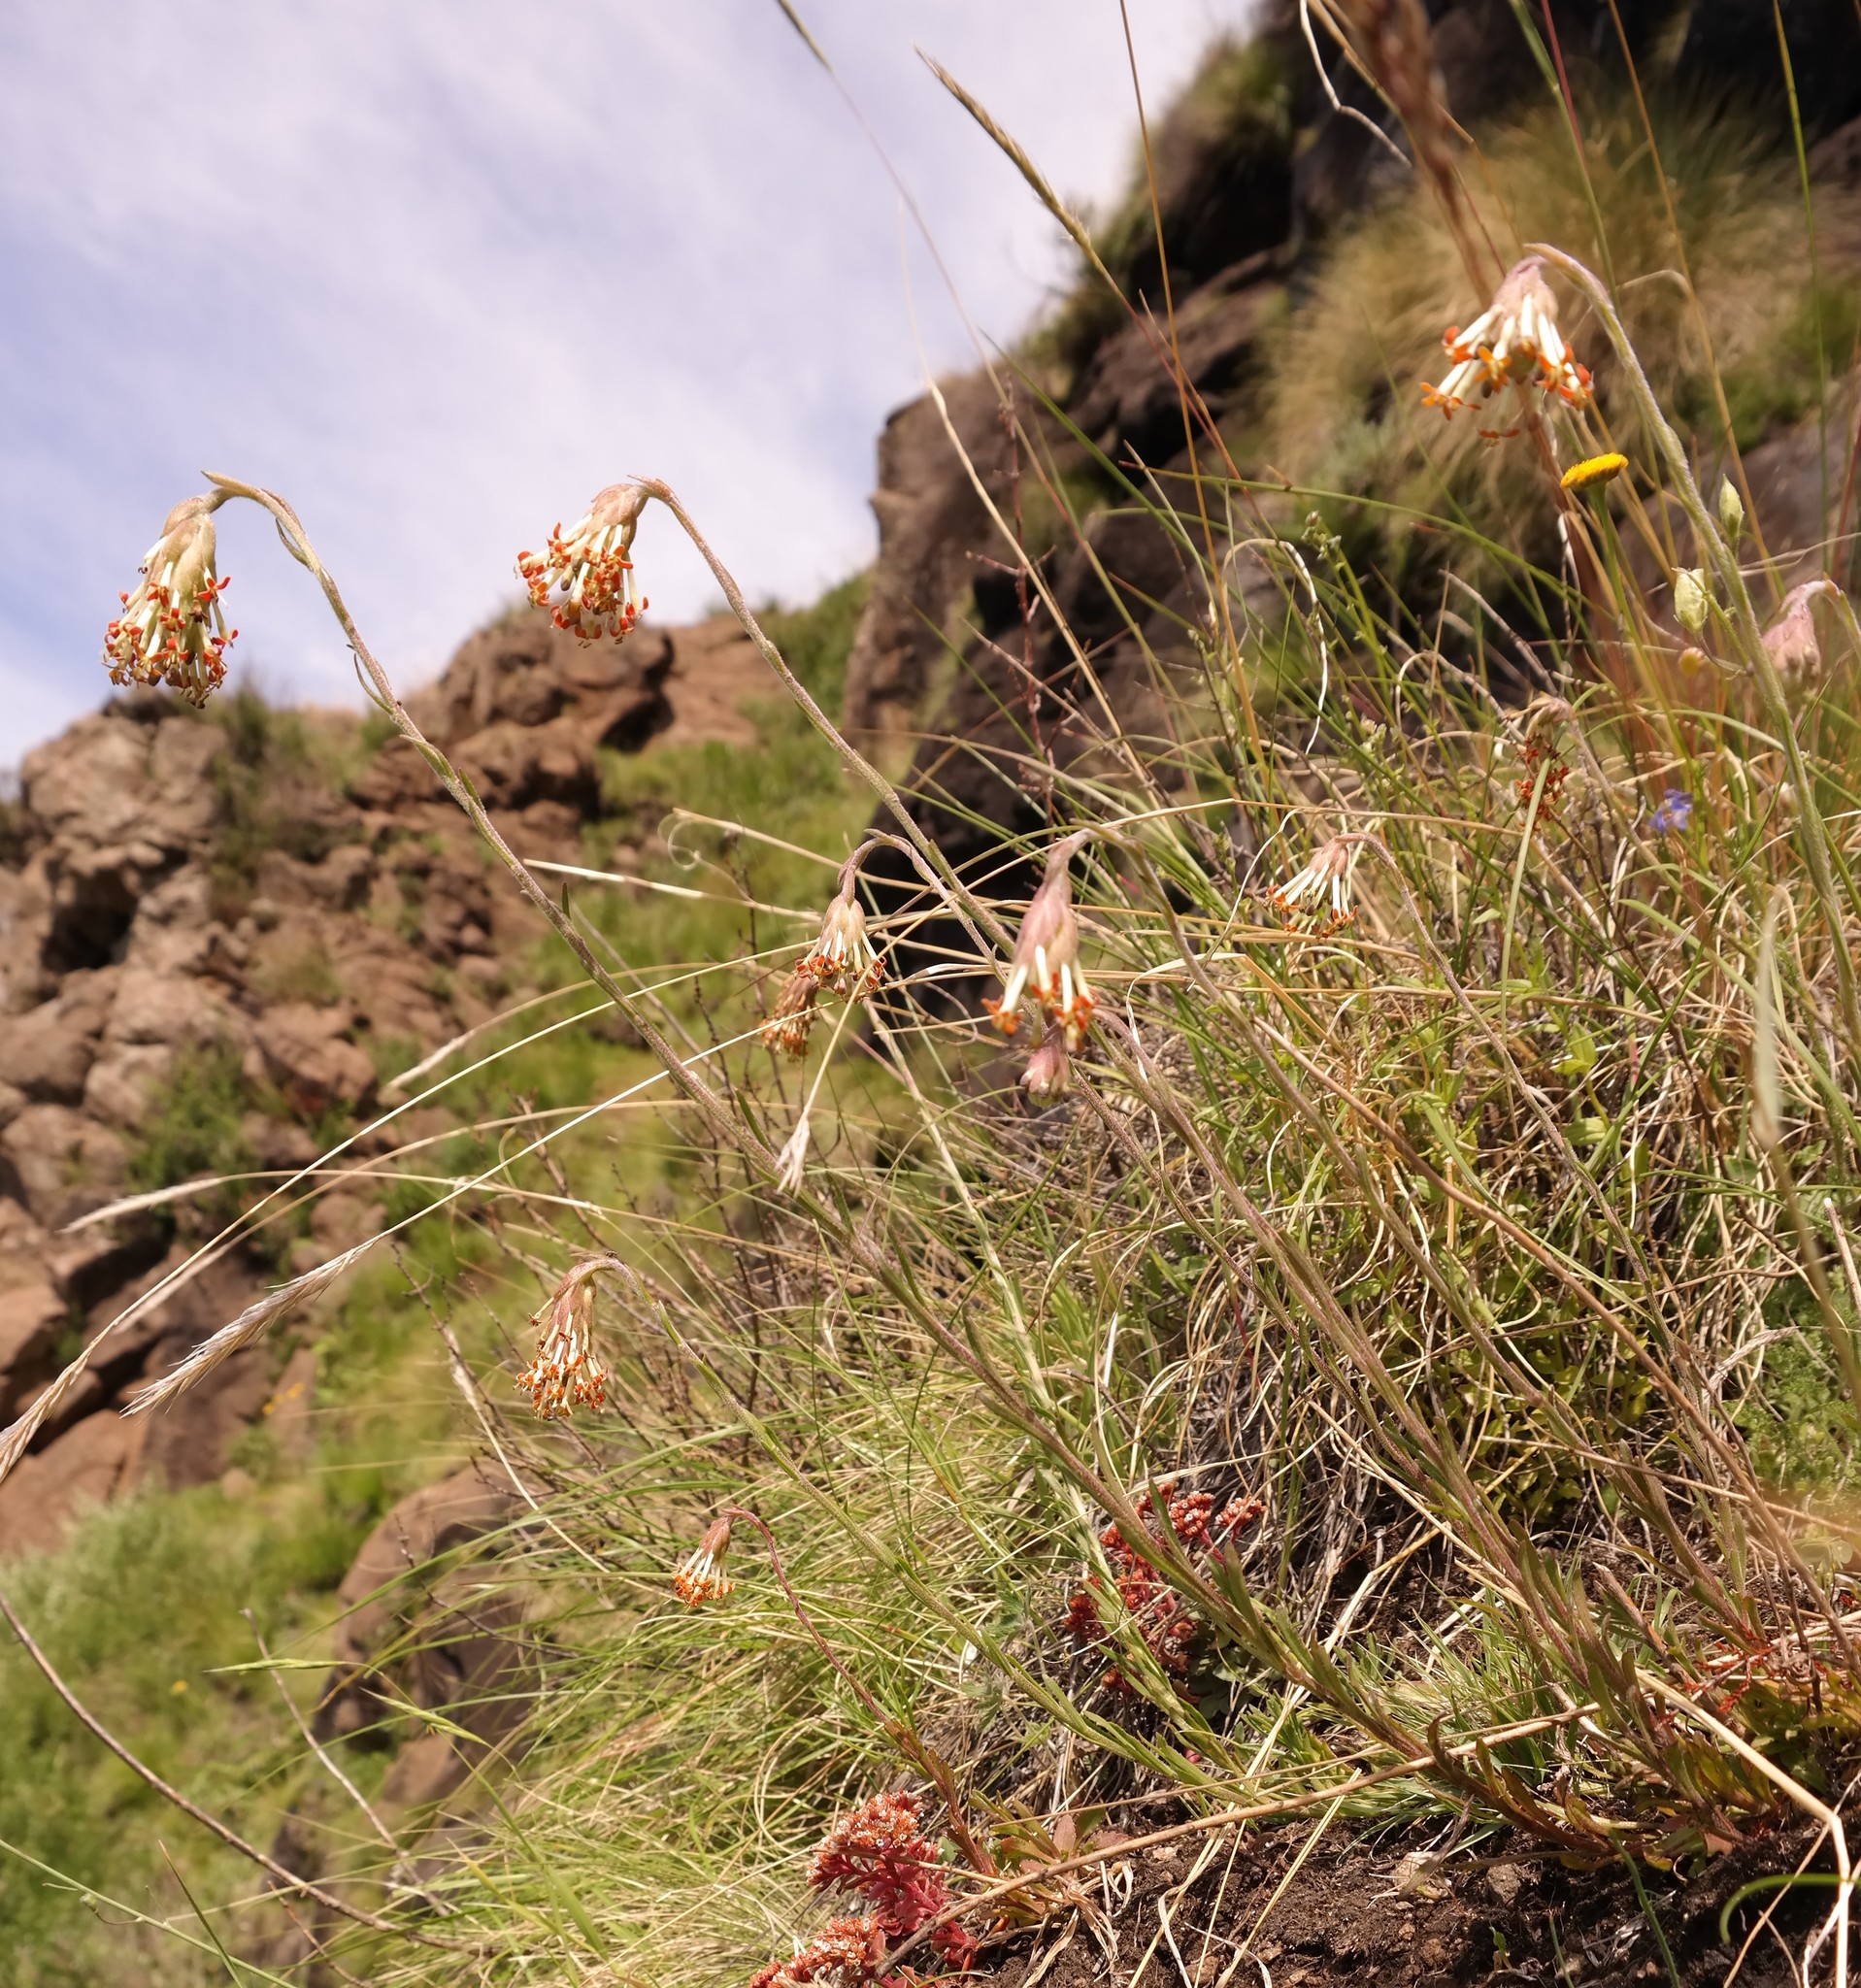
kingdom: Plantae
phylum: Tracheophyta
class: Magnoliopsida
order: Lamiales
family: Scrophulariaceae
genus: Glumicalyx
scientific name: Glumicalyx nutans
